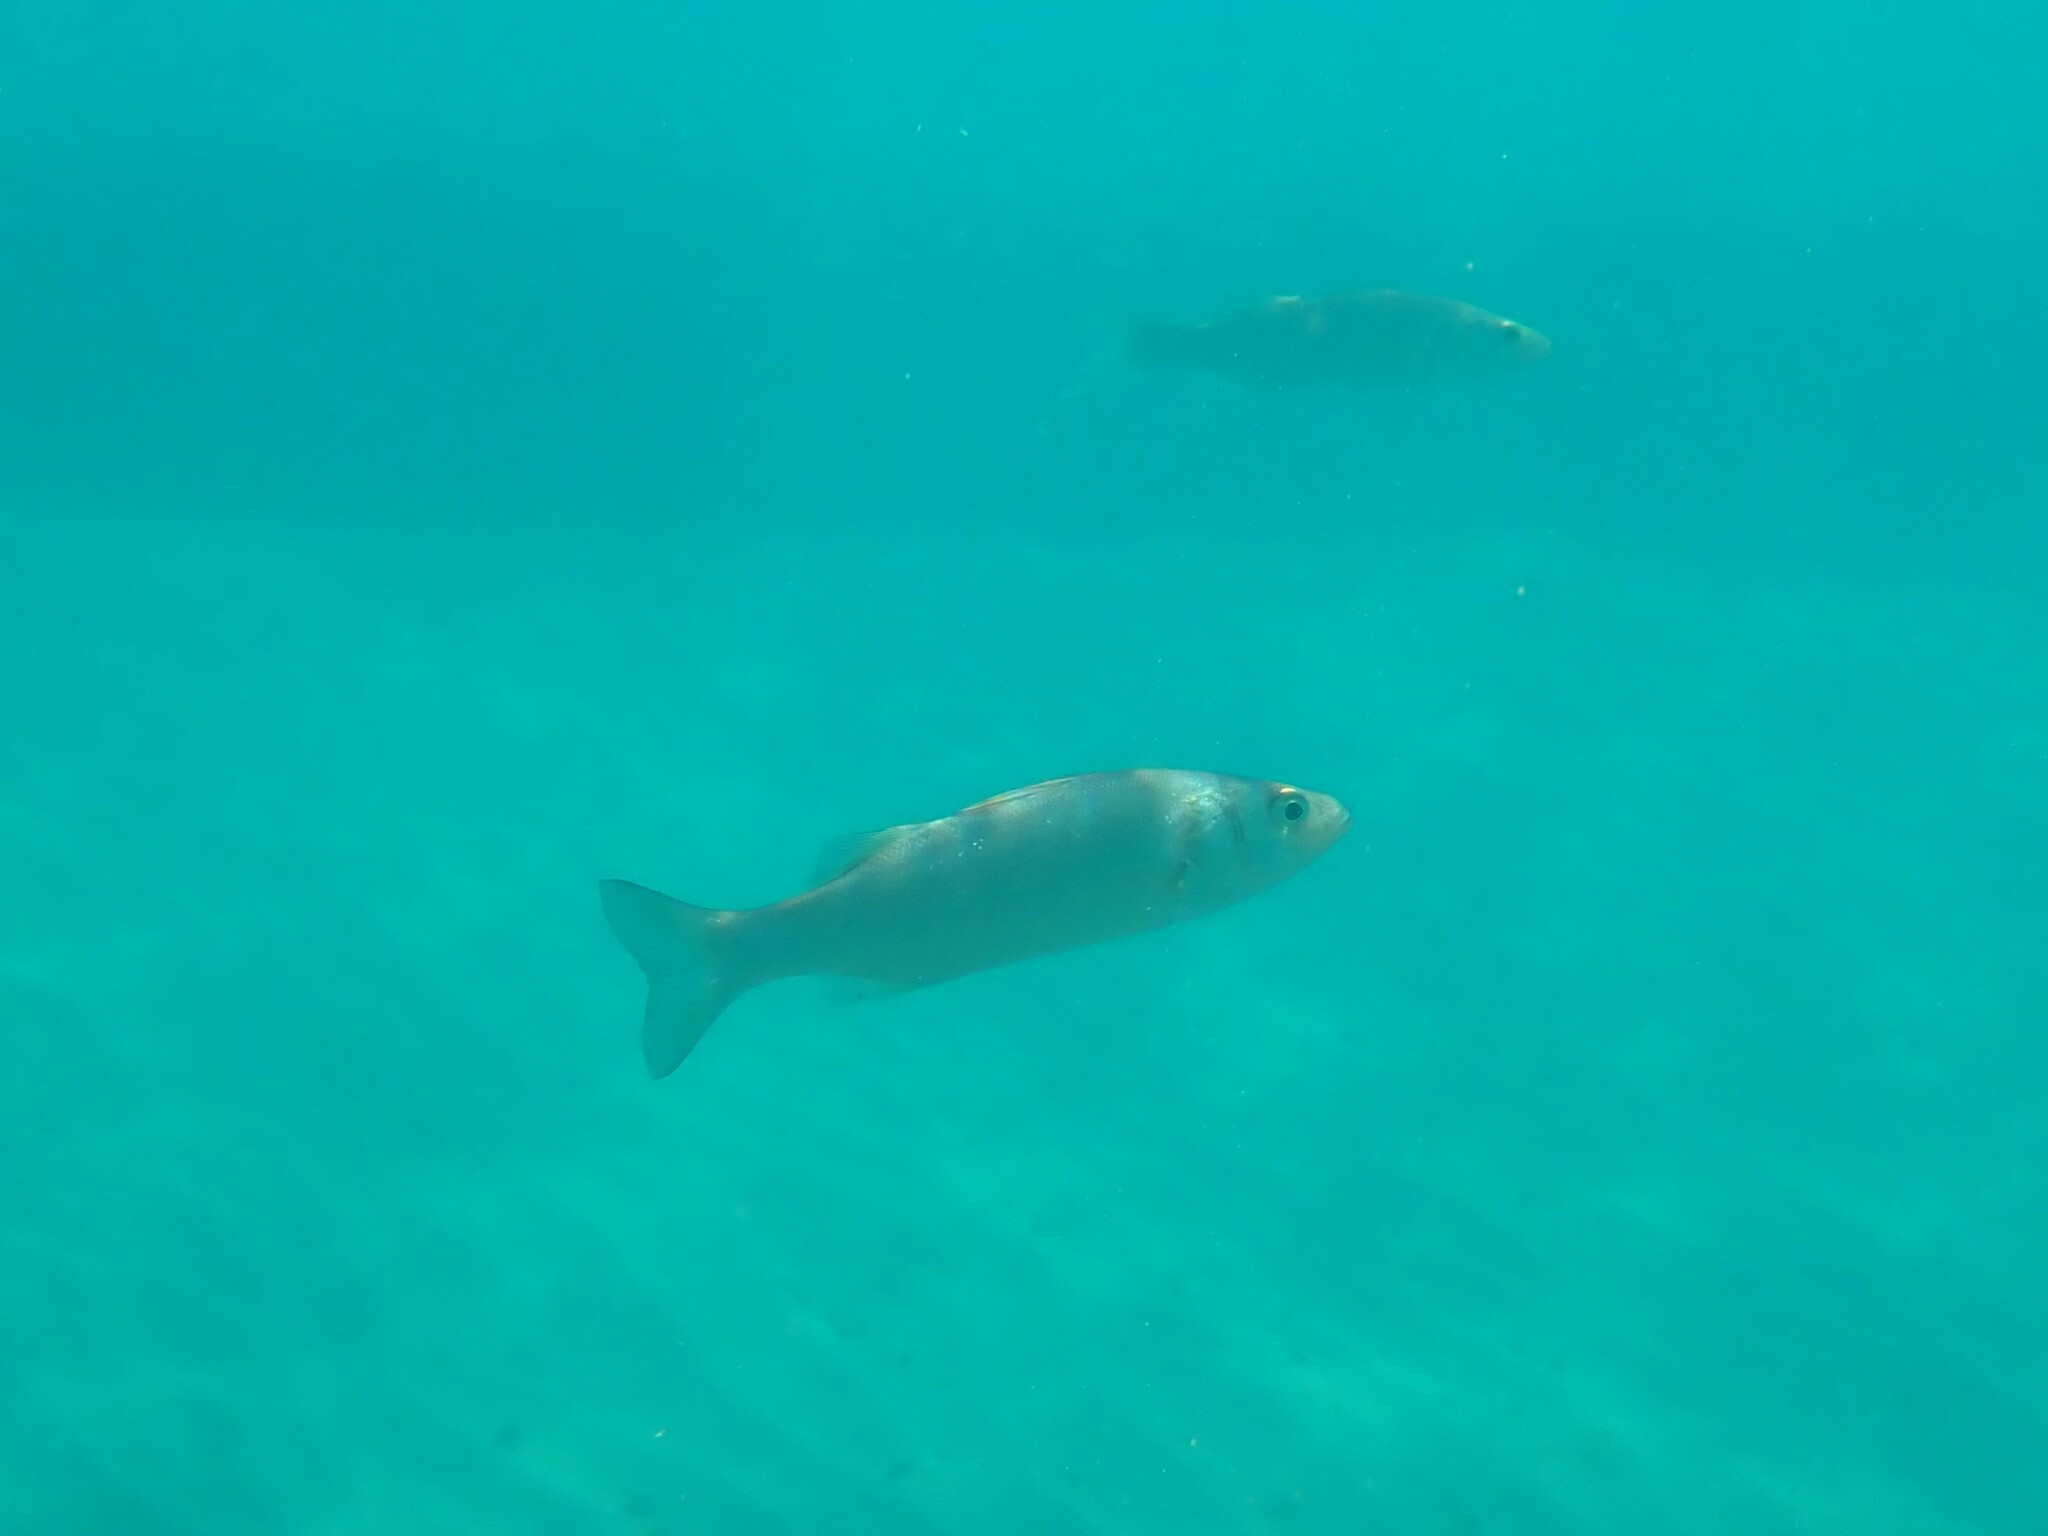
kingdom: Animalia
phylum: Chordata
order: Perciformes
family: Moronidae
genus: Dicentrarchus
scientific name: Dicentrarchus labrax
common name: European seabass
